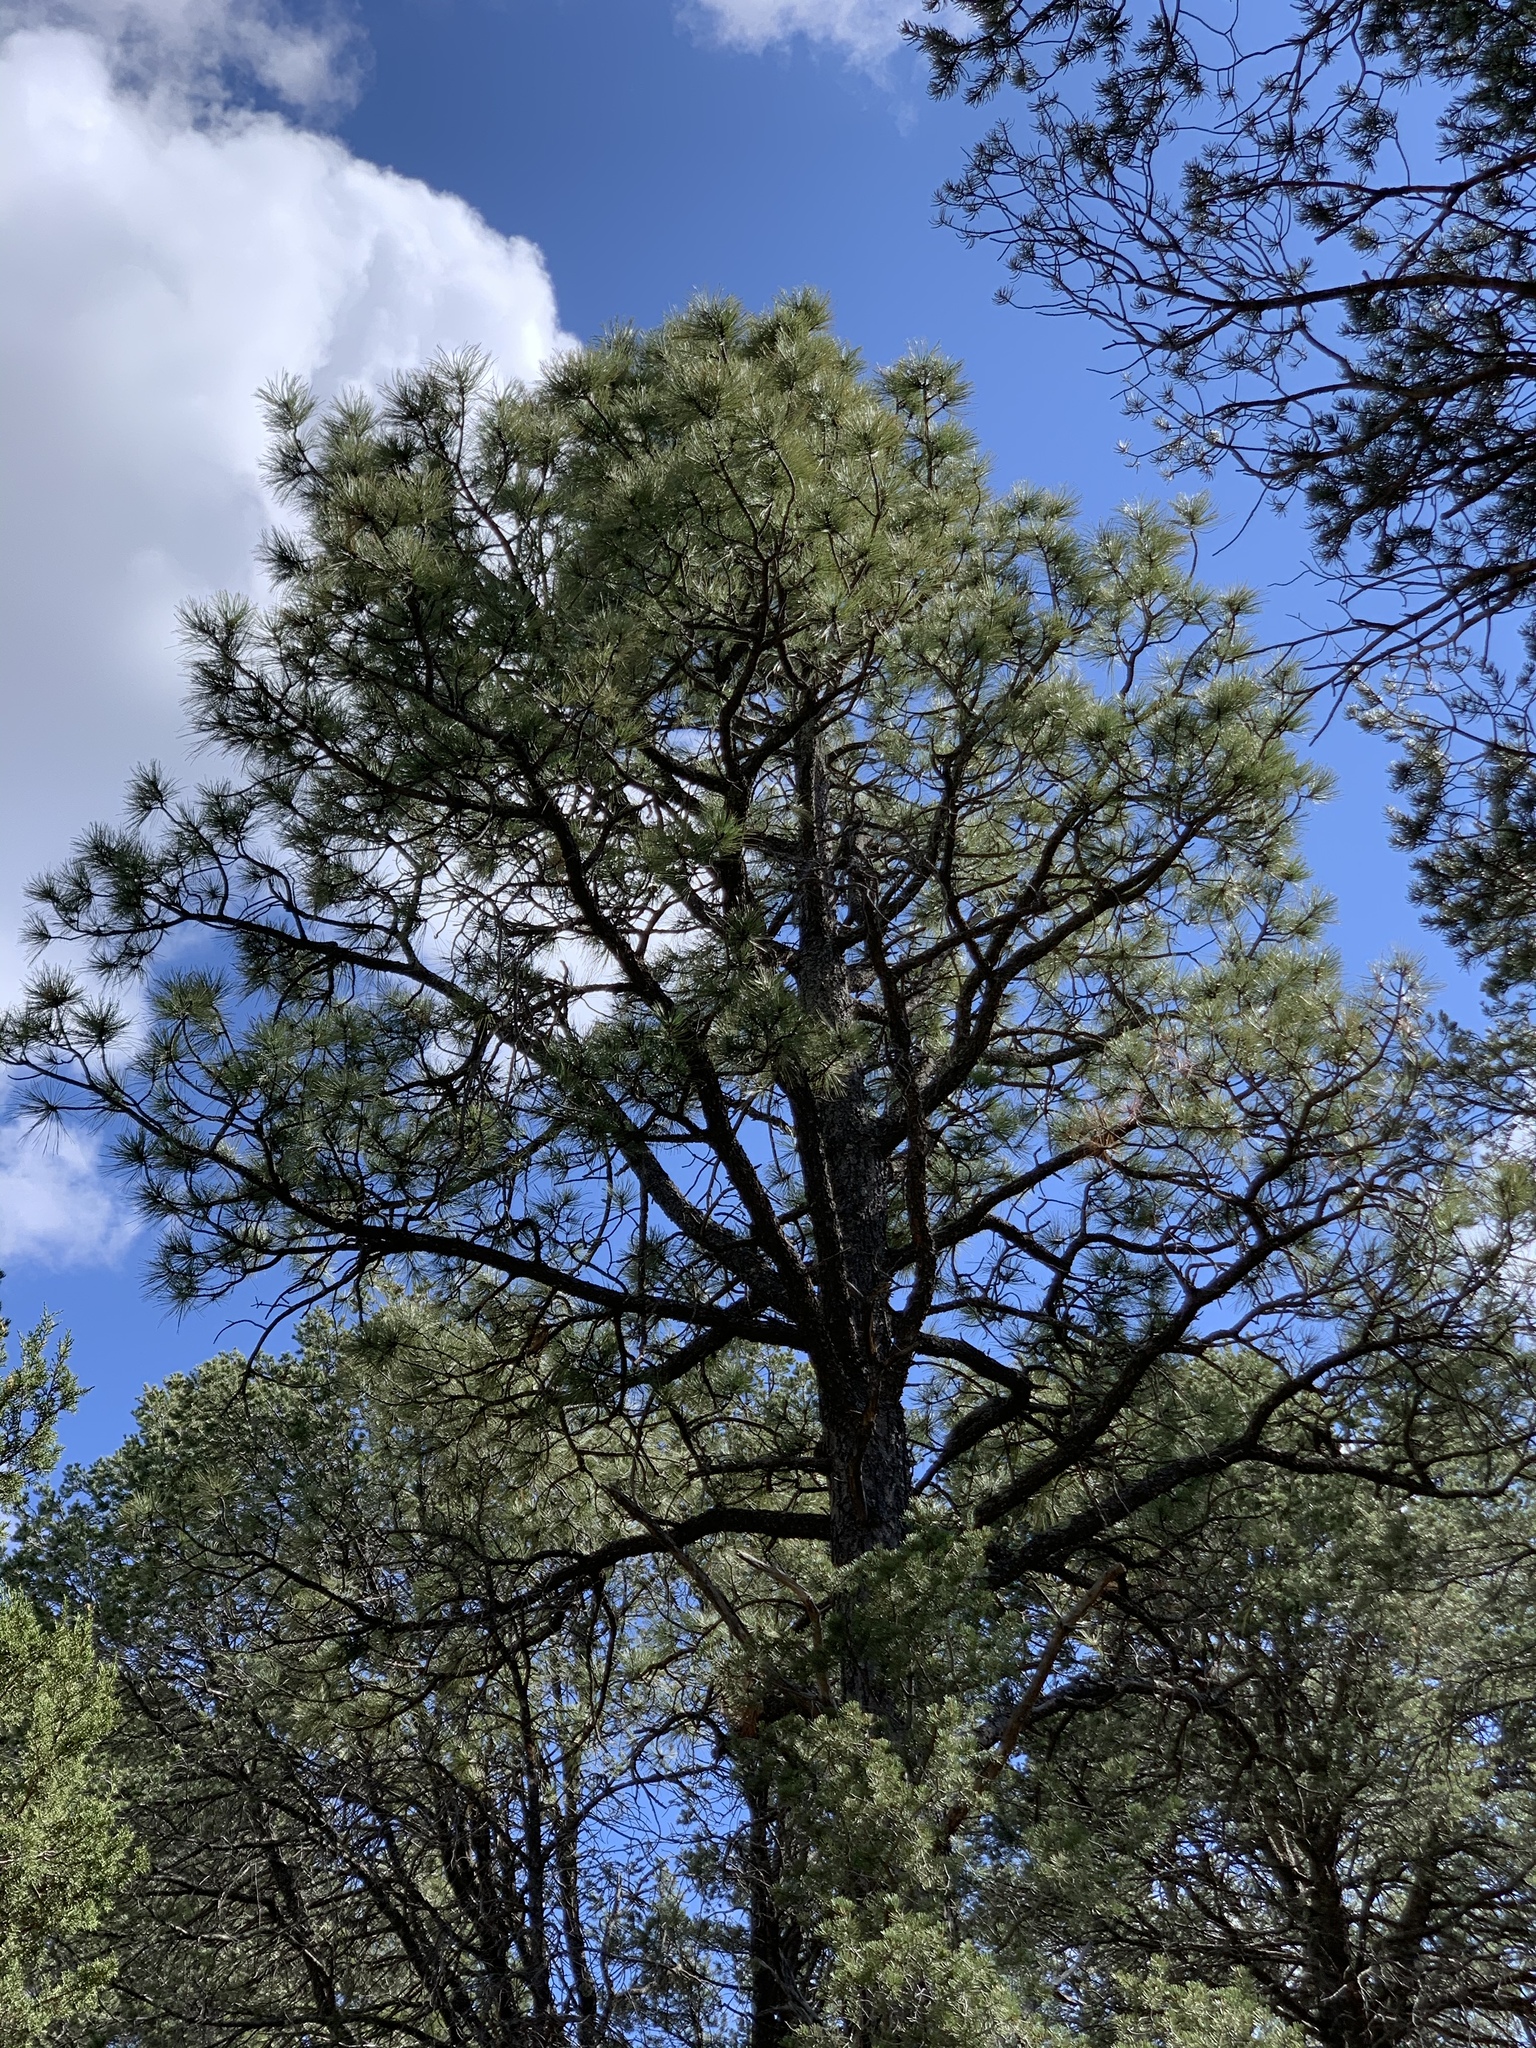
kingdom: Plantae
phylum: Tracheophyta
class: Pinopsida
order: Pinales
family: Pinaceae
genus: Pinus
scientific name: Pinus ponderosa
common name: Western yellow-pine
